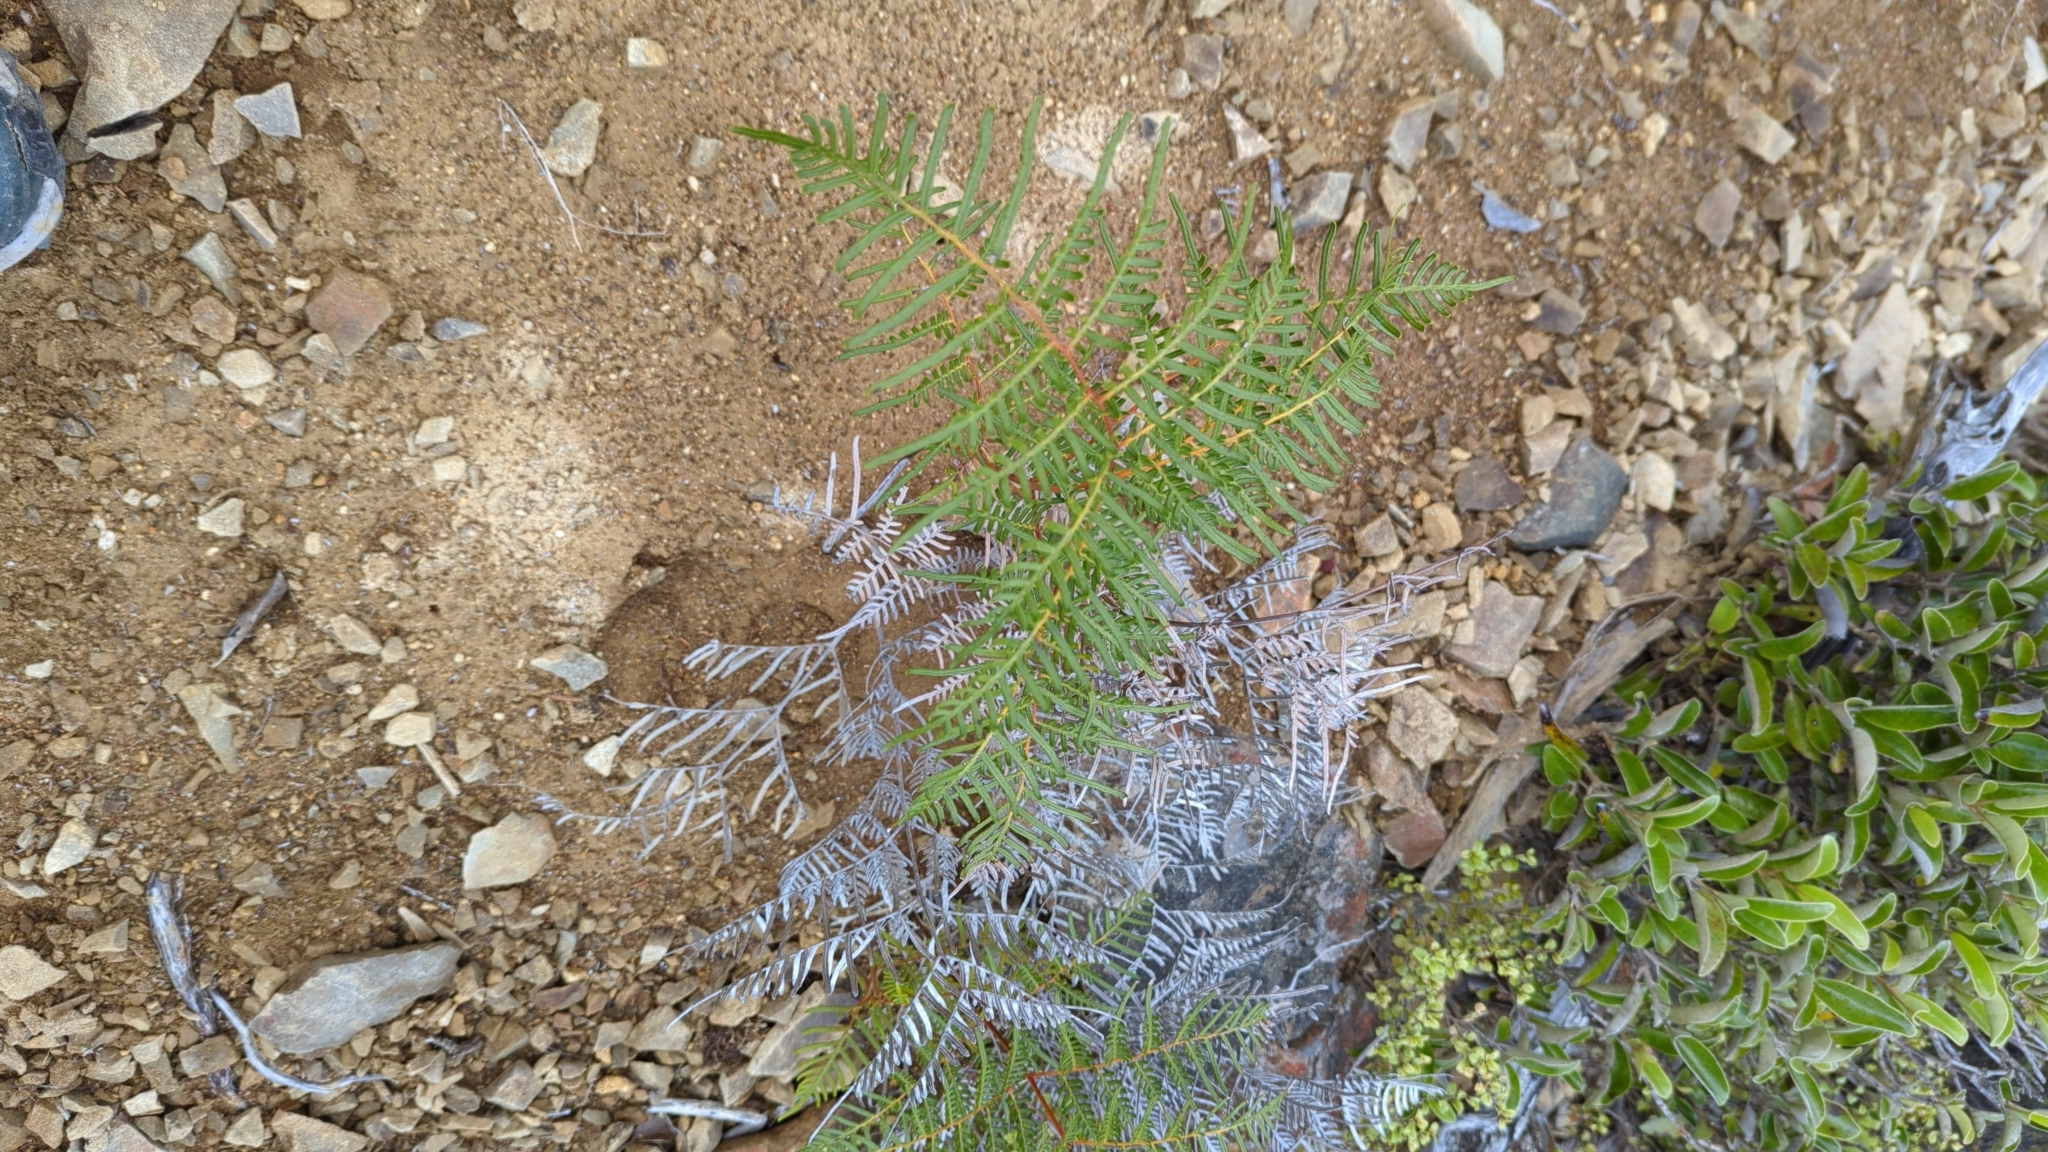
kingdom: Plantae
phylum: Tracheophyta
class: Polypodiopsida
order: Polypodiales
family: Dennstaedtiaceae
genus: Pteridium
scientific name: Pteridium esculentum
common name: Bracken fern
